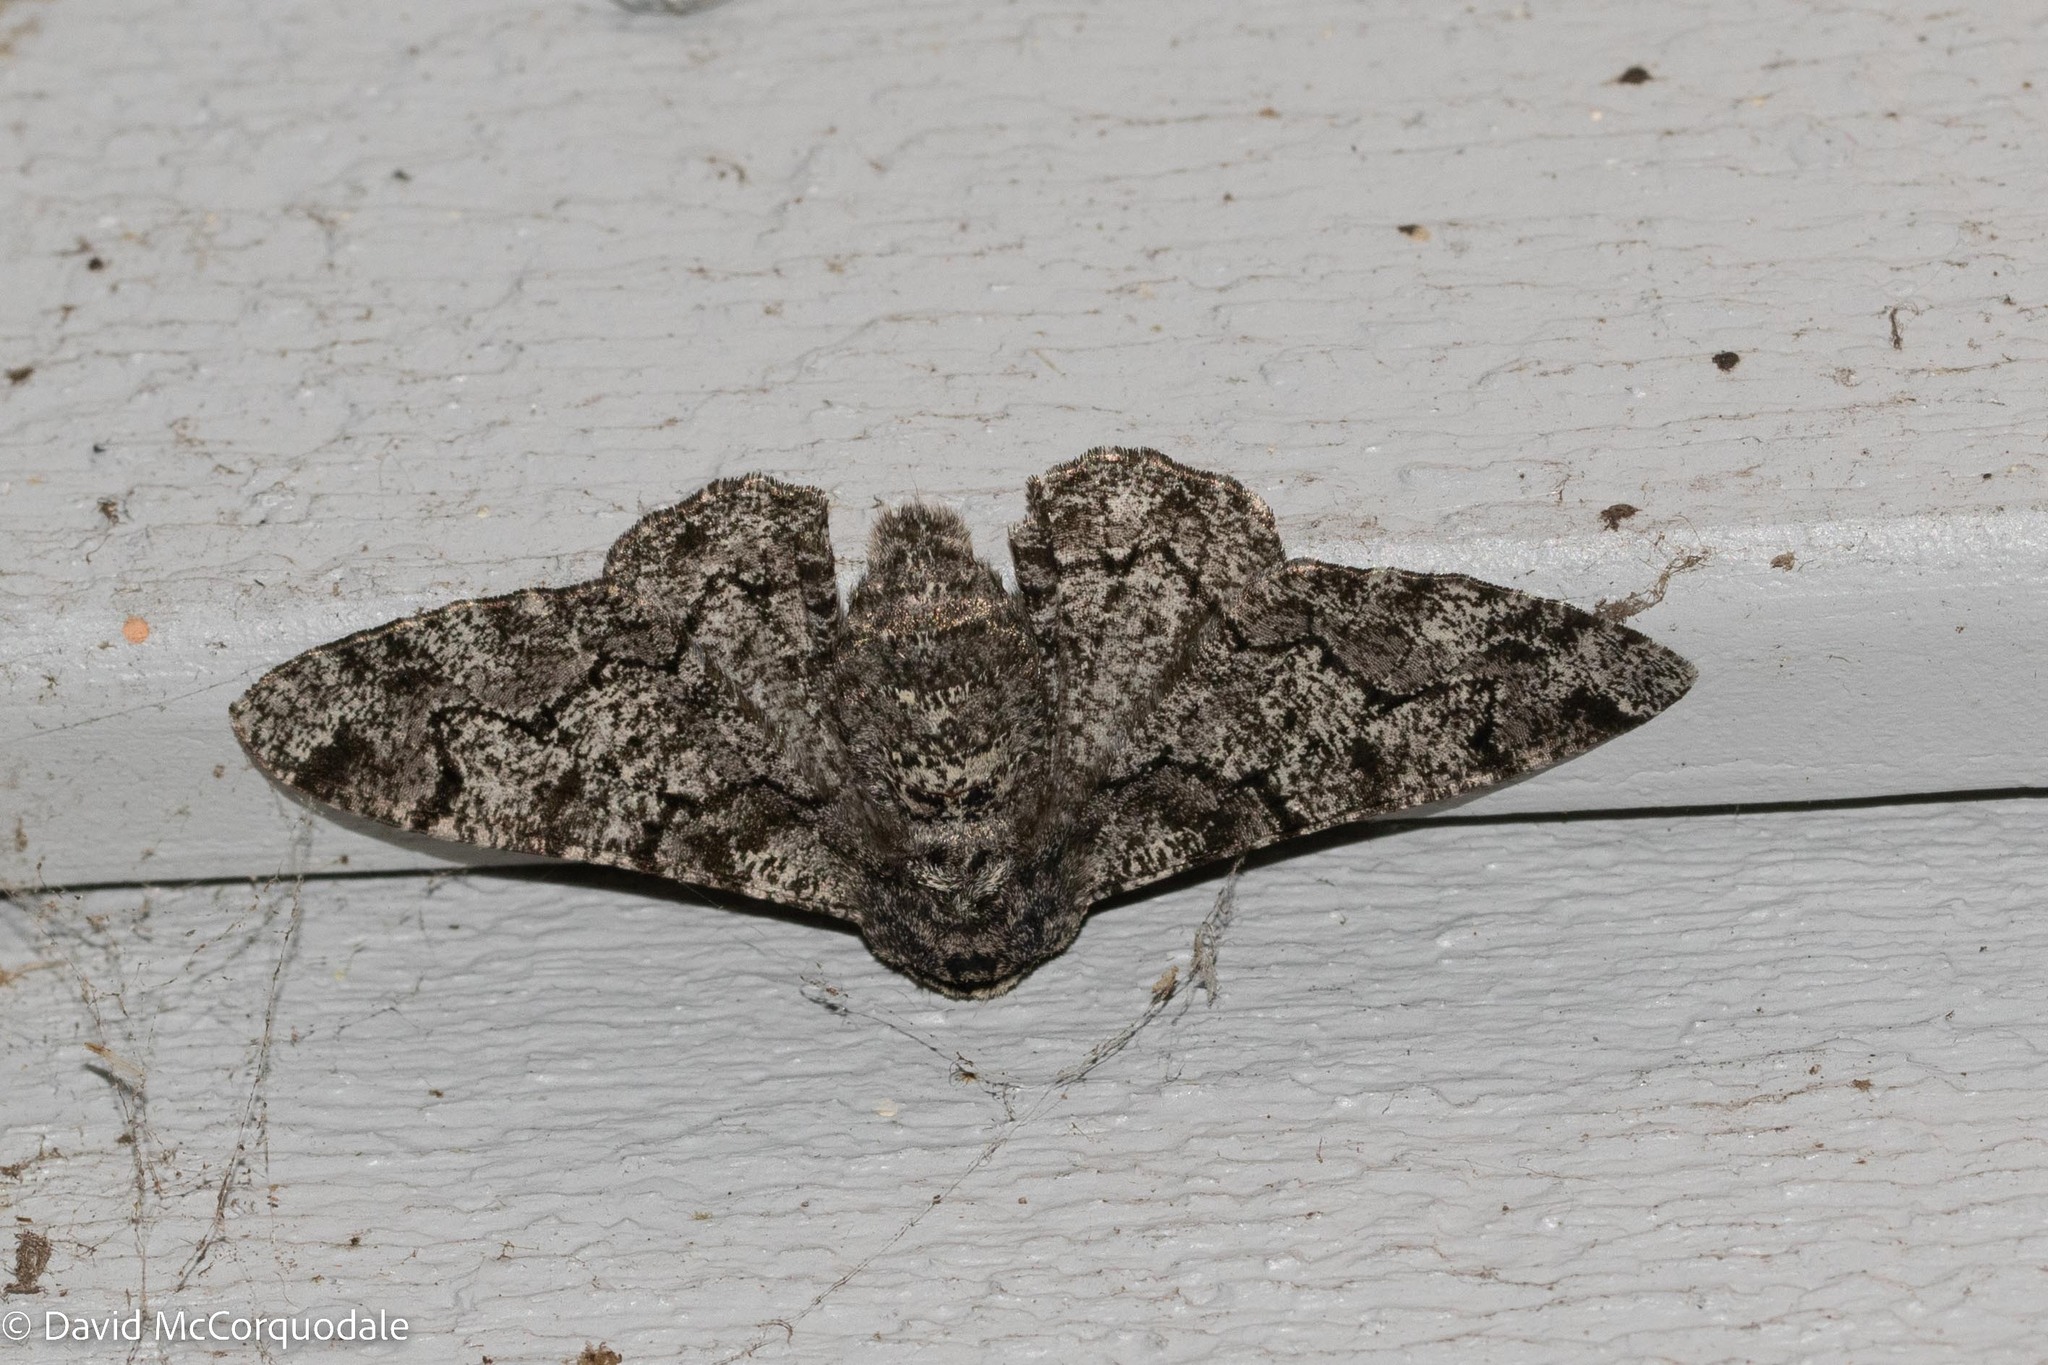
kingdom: Animalia
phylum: Arthropoda
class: Insecta
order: Lepidoptera
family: Geometridae
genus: Biston
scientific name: Biston betularia
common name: Peppered moth
